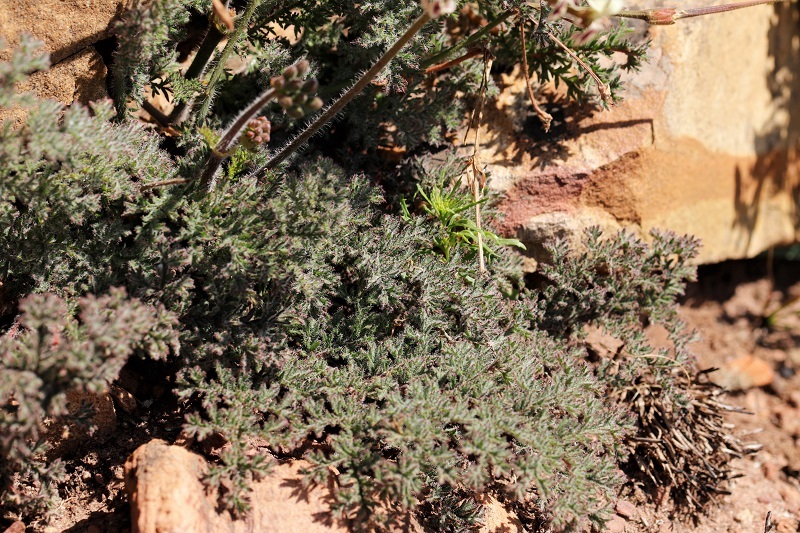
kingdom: Plantae
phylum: Tracheophyta
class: Magnoliopsida
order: Geraniales
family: Geraniaceae
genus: Pelargonium
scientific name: Pelargonium triste
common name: Night-scent pelargonium
